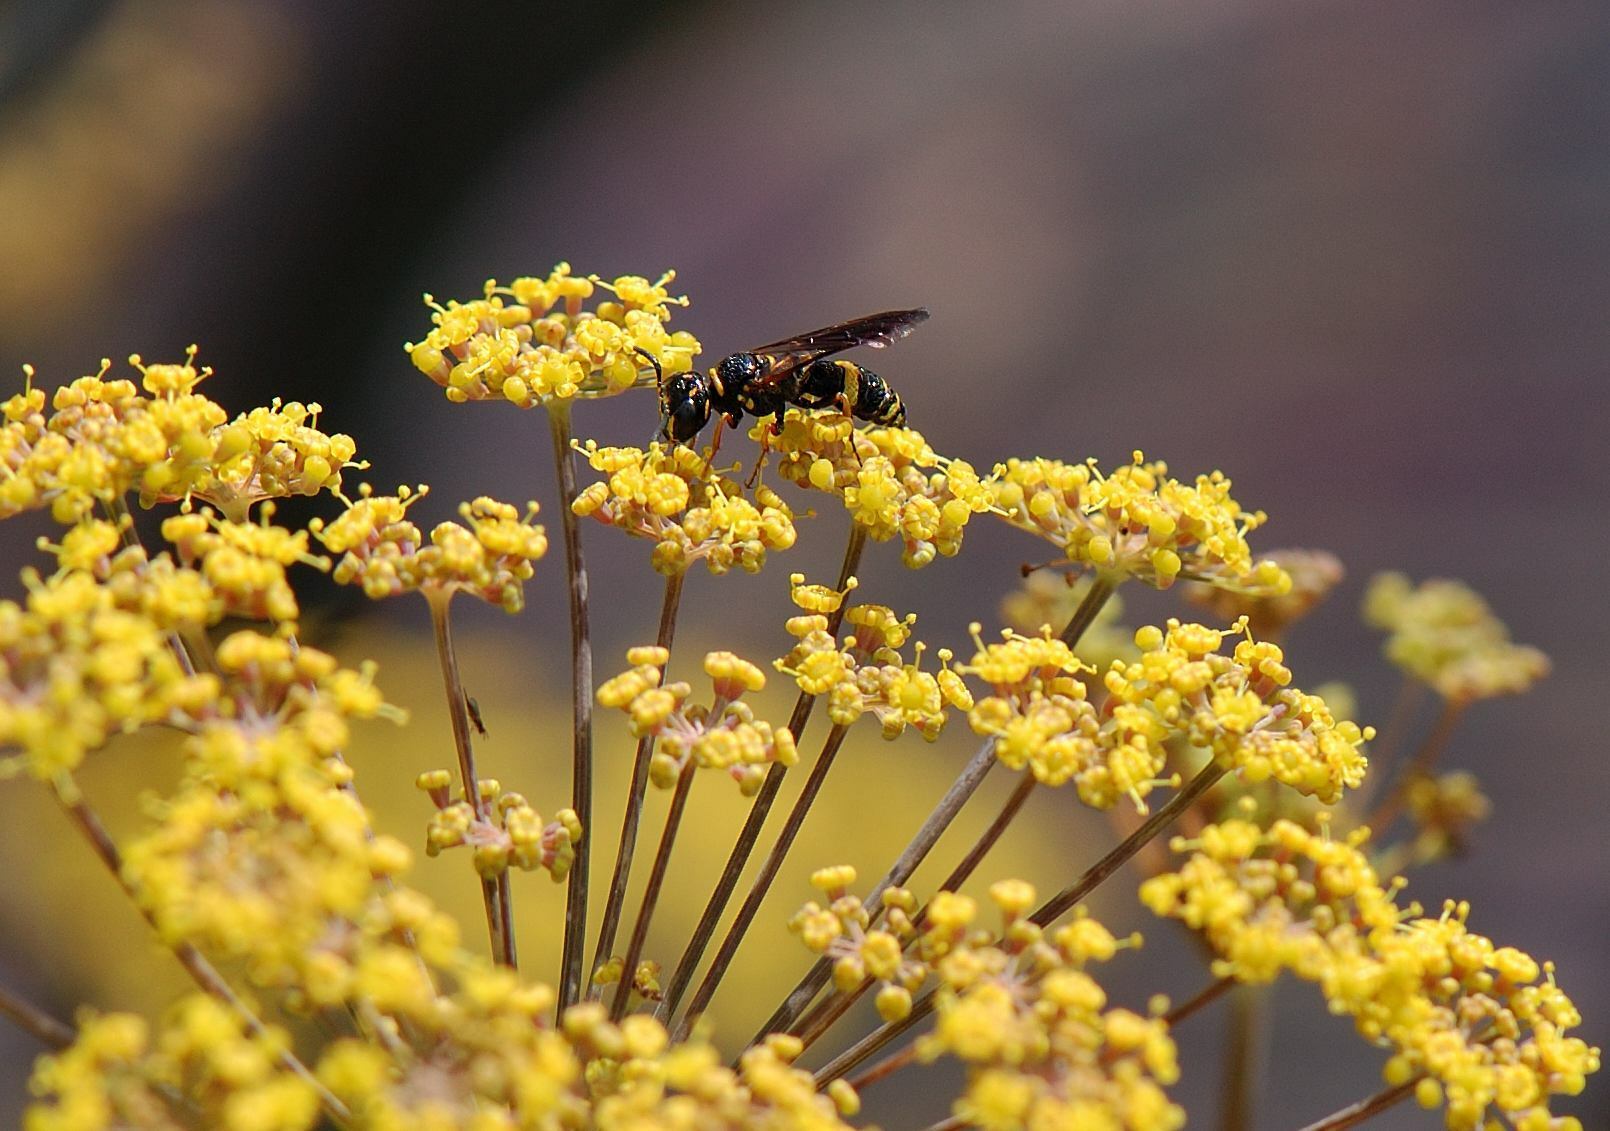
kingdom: Animalia
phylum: Arthropoda
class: Insecta
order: Hymenoptera
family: Crabronidae
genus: Philanthus
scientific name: Philanthus gibbosus
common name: Humped beewolf
